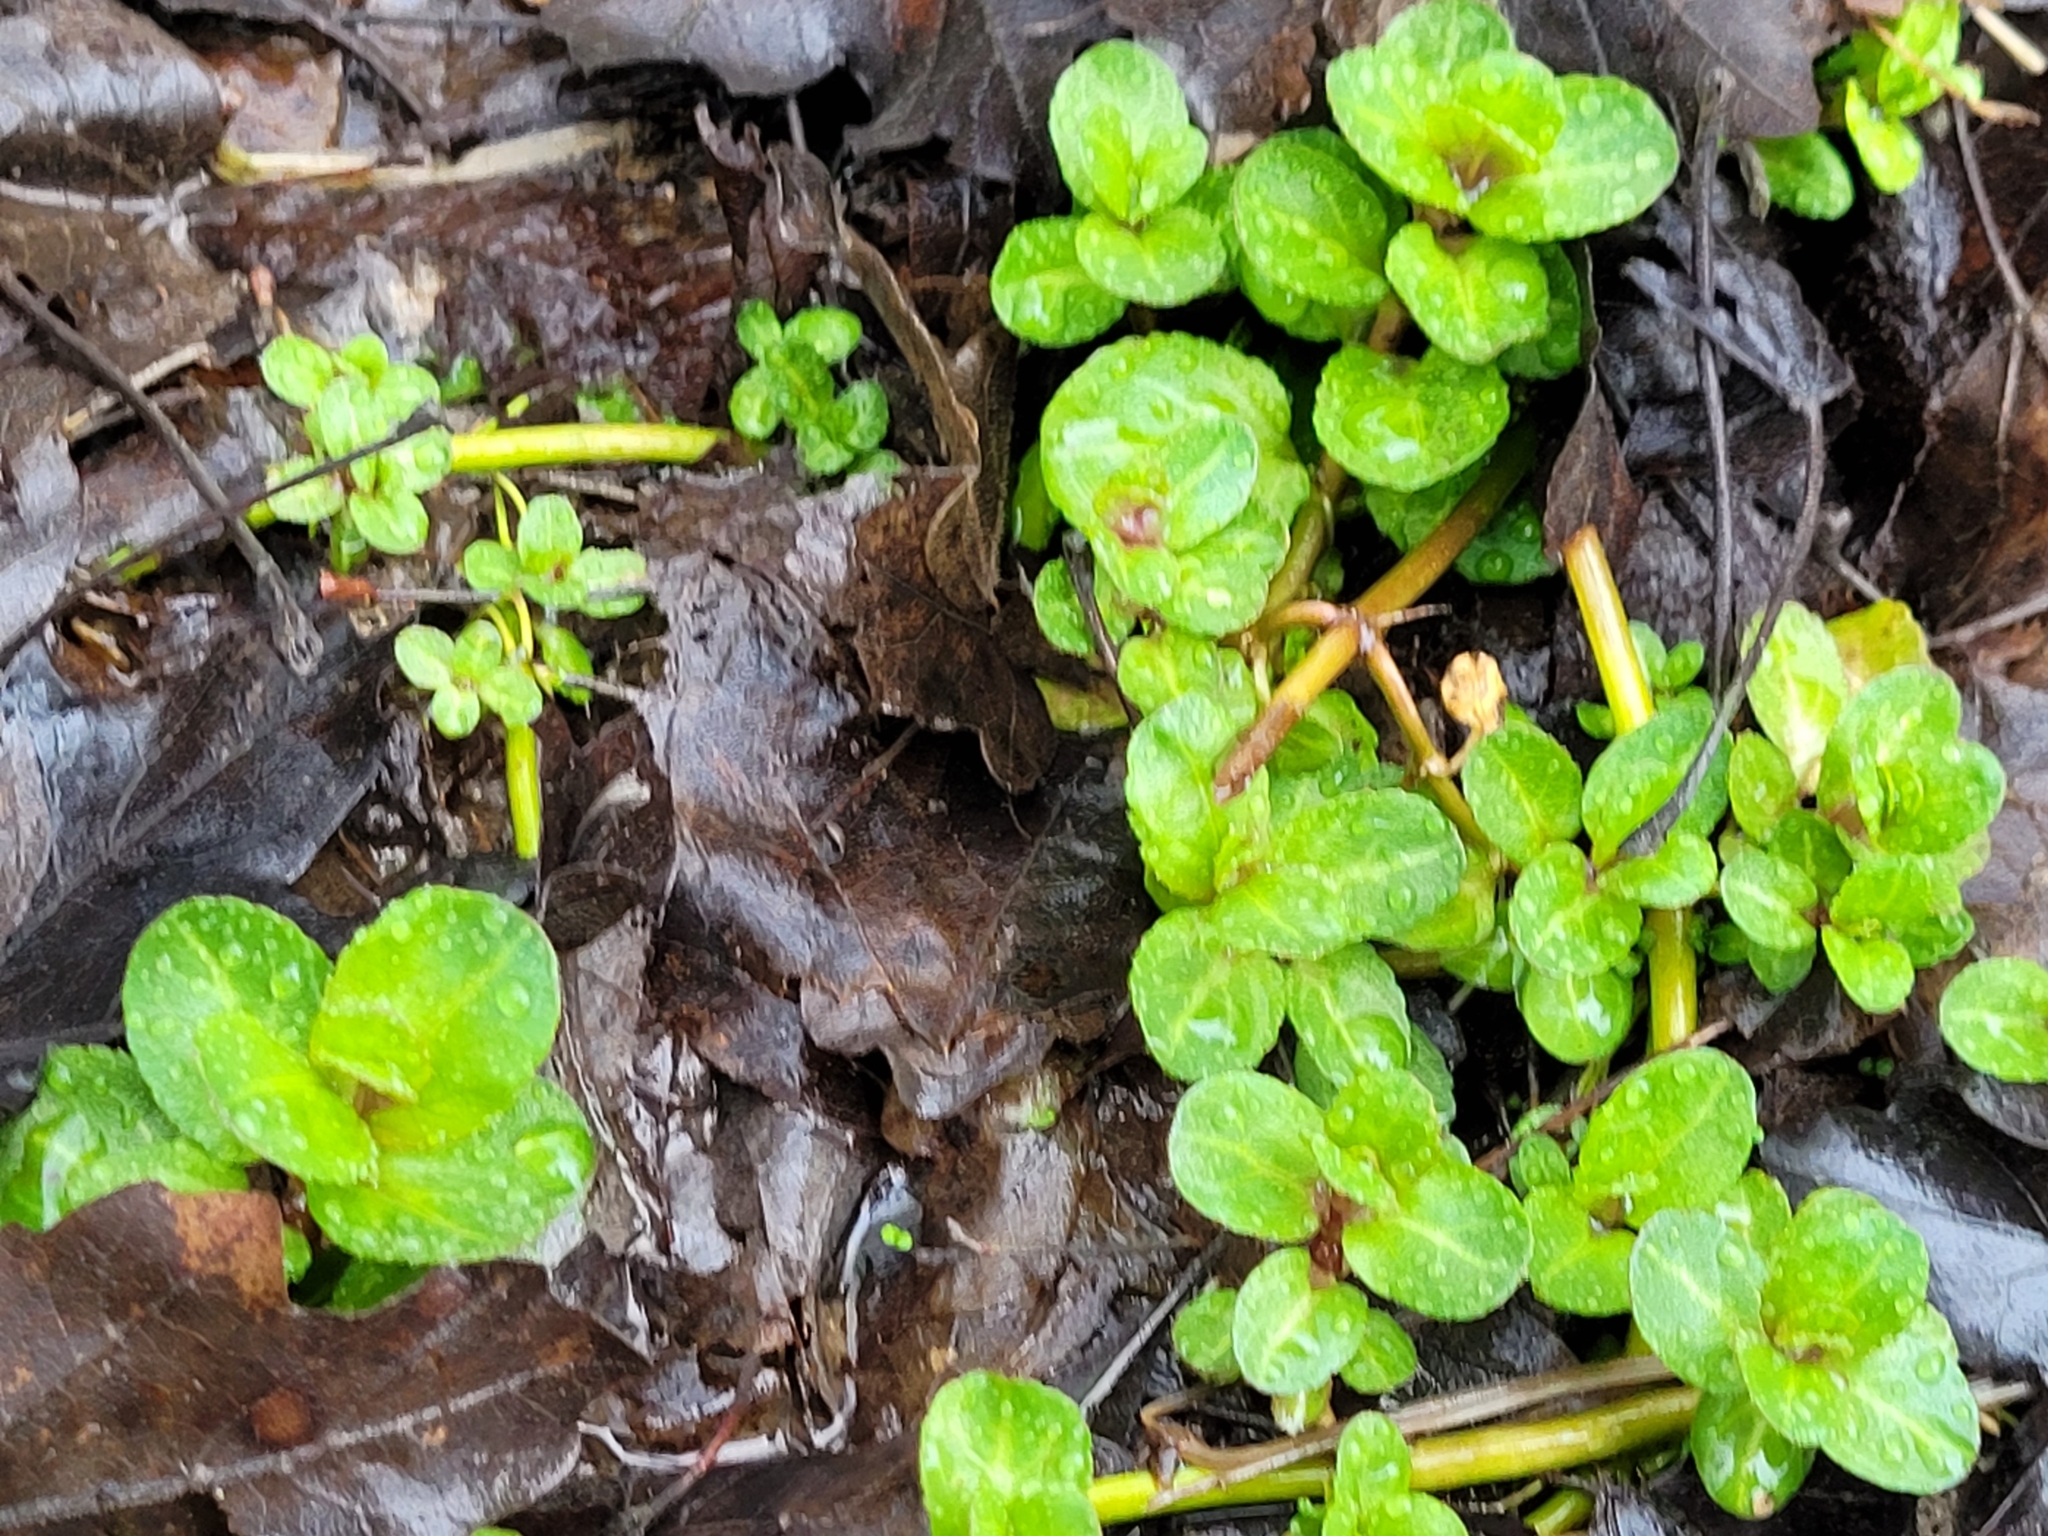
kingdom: Plantae
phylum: Tracheophyta
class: Magnoliopsida
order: Lamiales
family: Plantaginaceae
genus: Veronica
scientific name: Veronica beccabunga
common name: Brooklime
